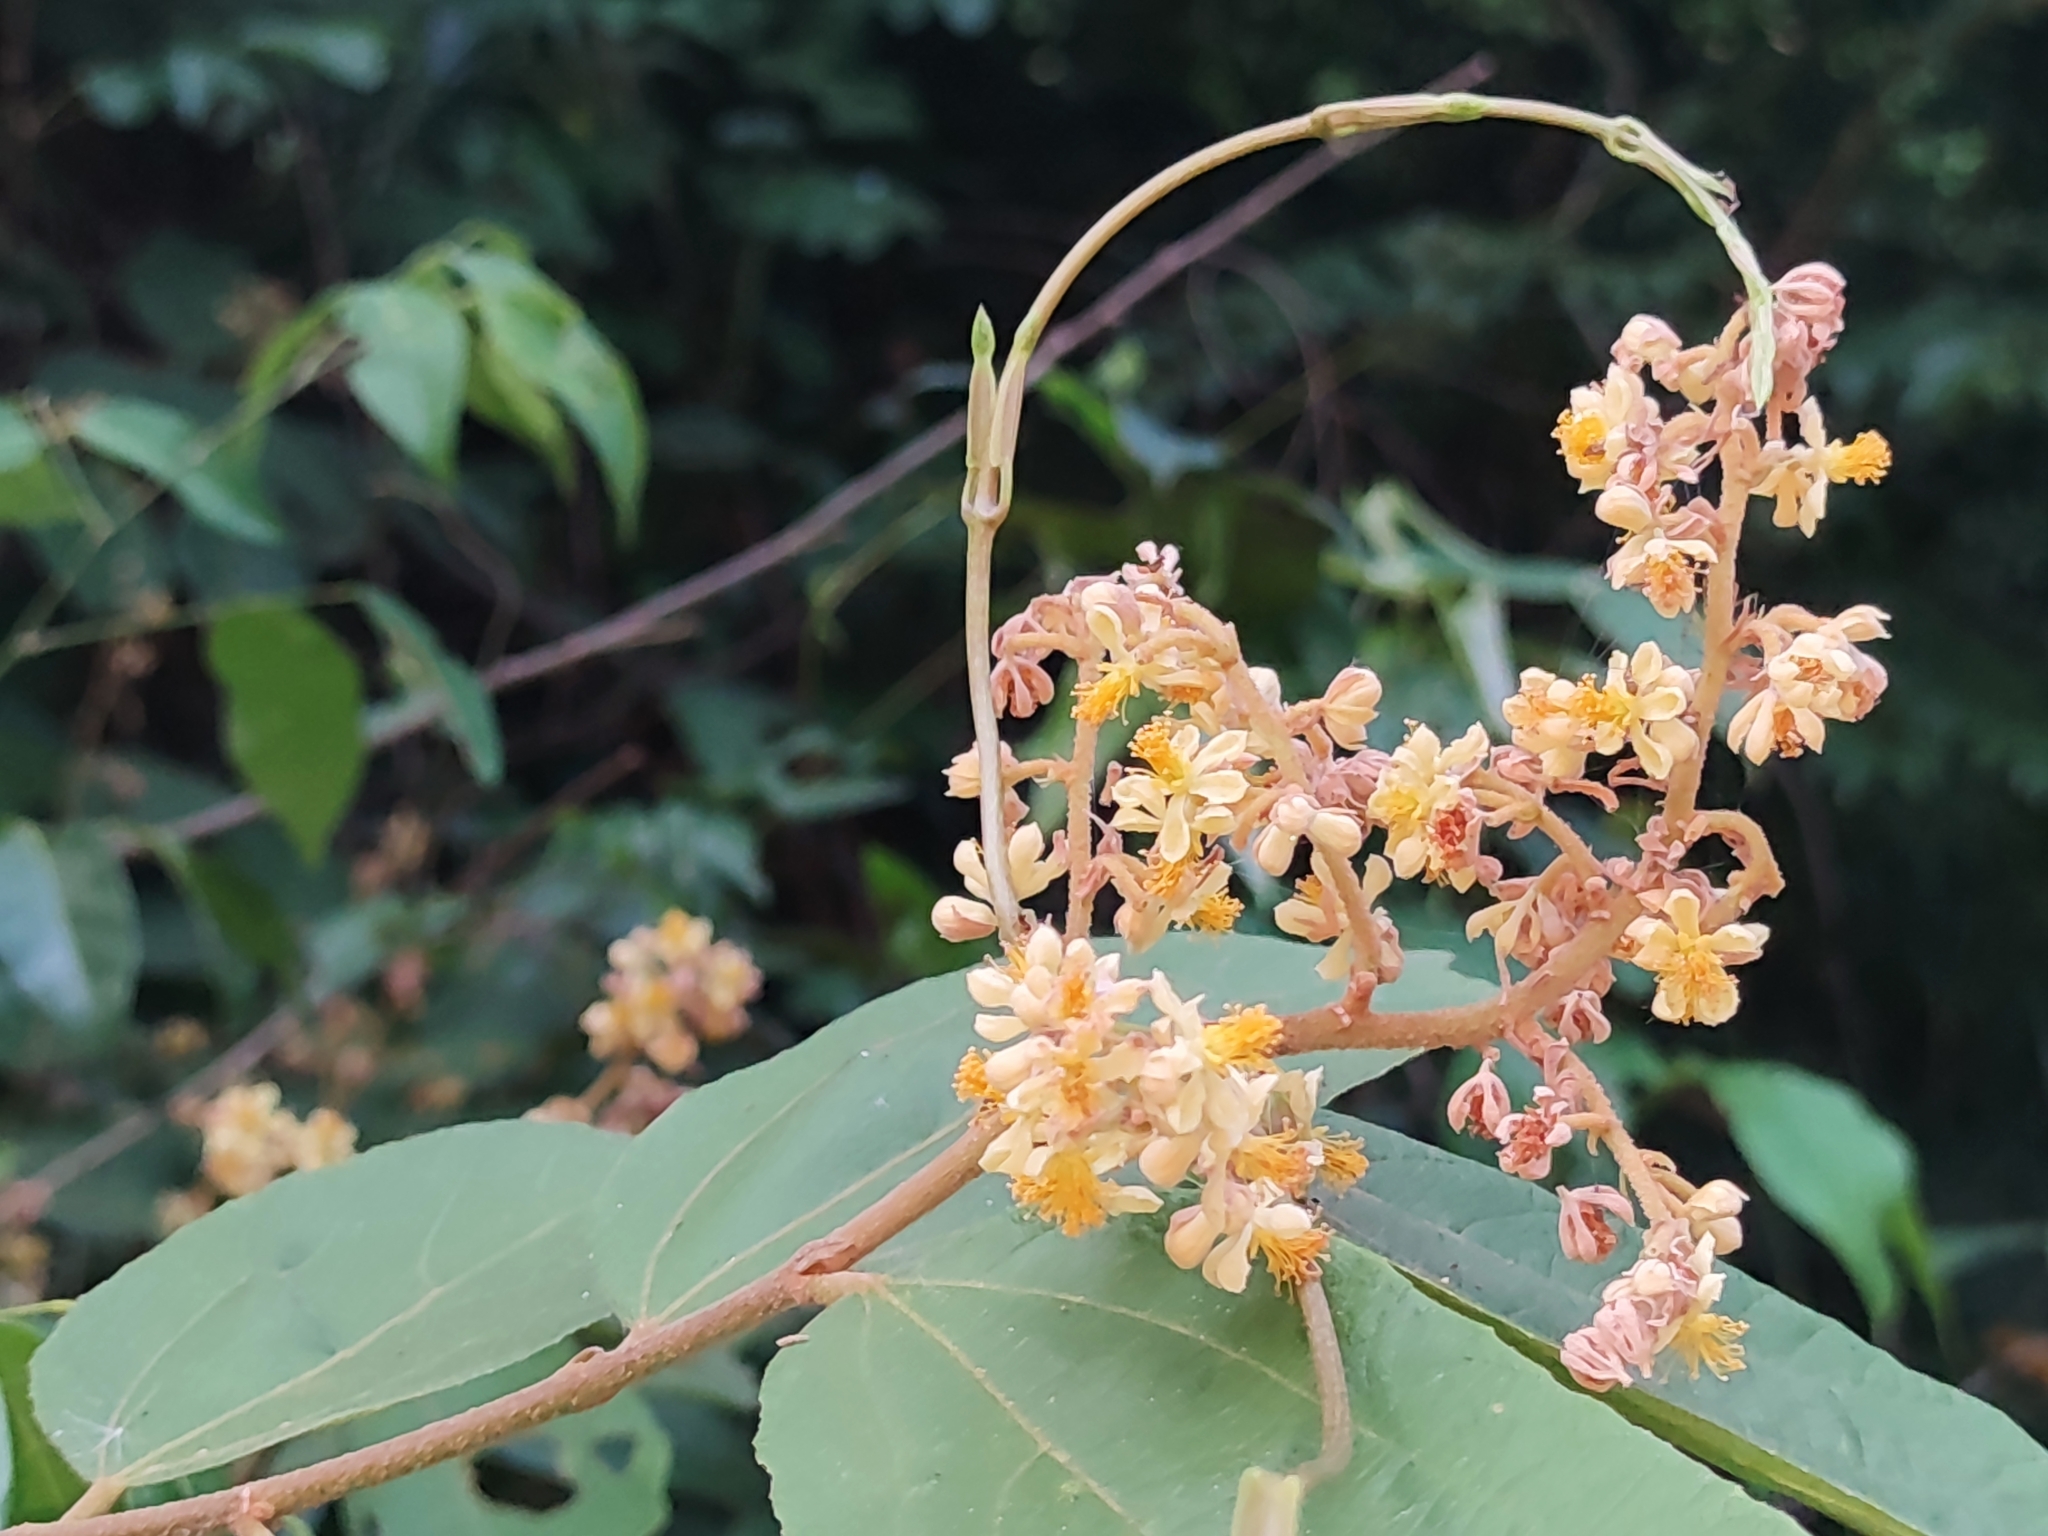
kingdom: Plantae
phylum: Tracheophyta
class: Magnoliopsida
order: Malvales
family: Malvaceae
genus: Microcos
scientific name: Microcos tomentosa
